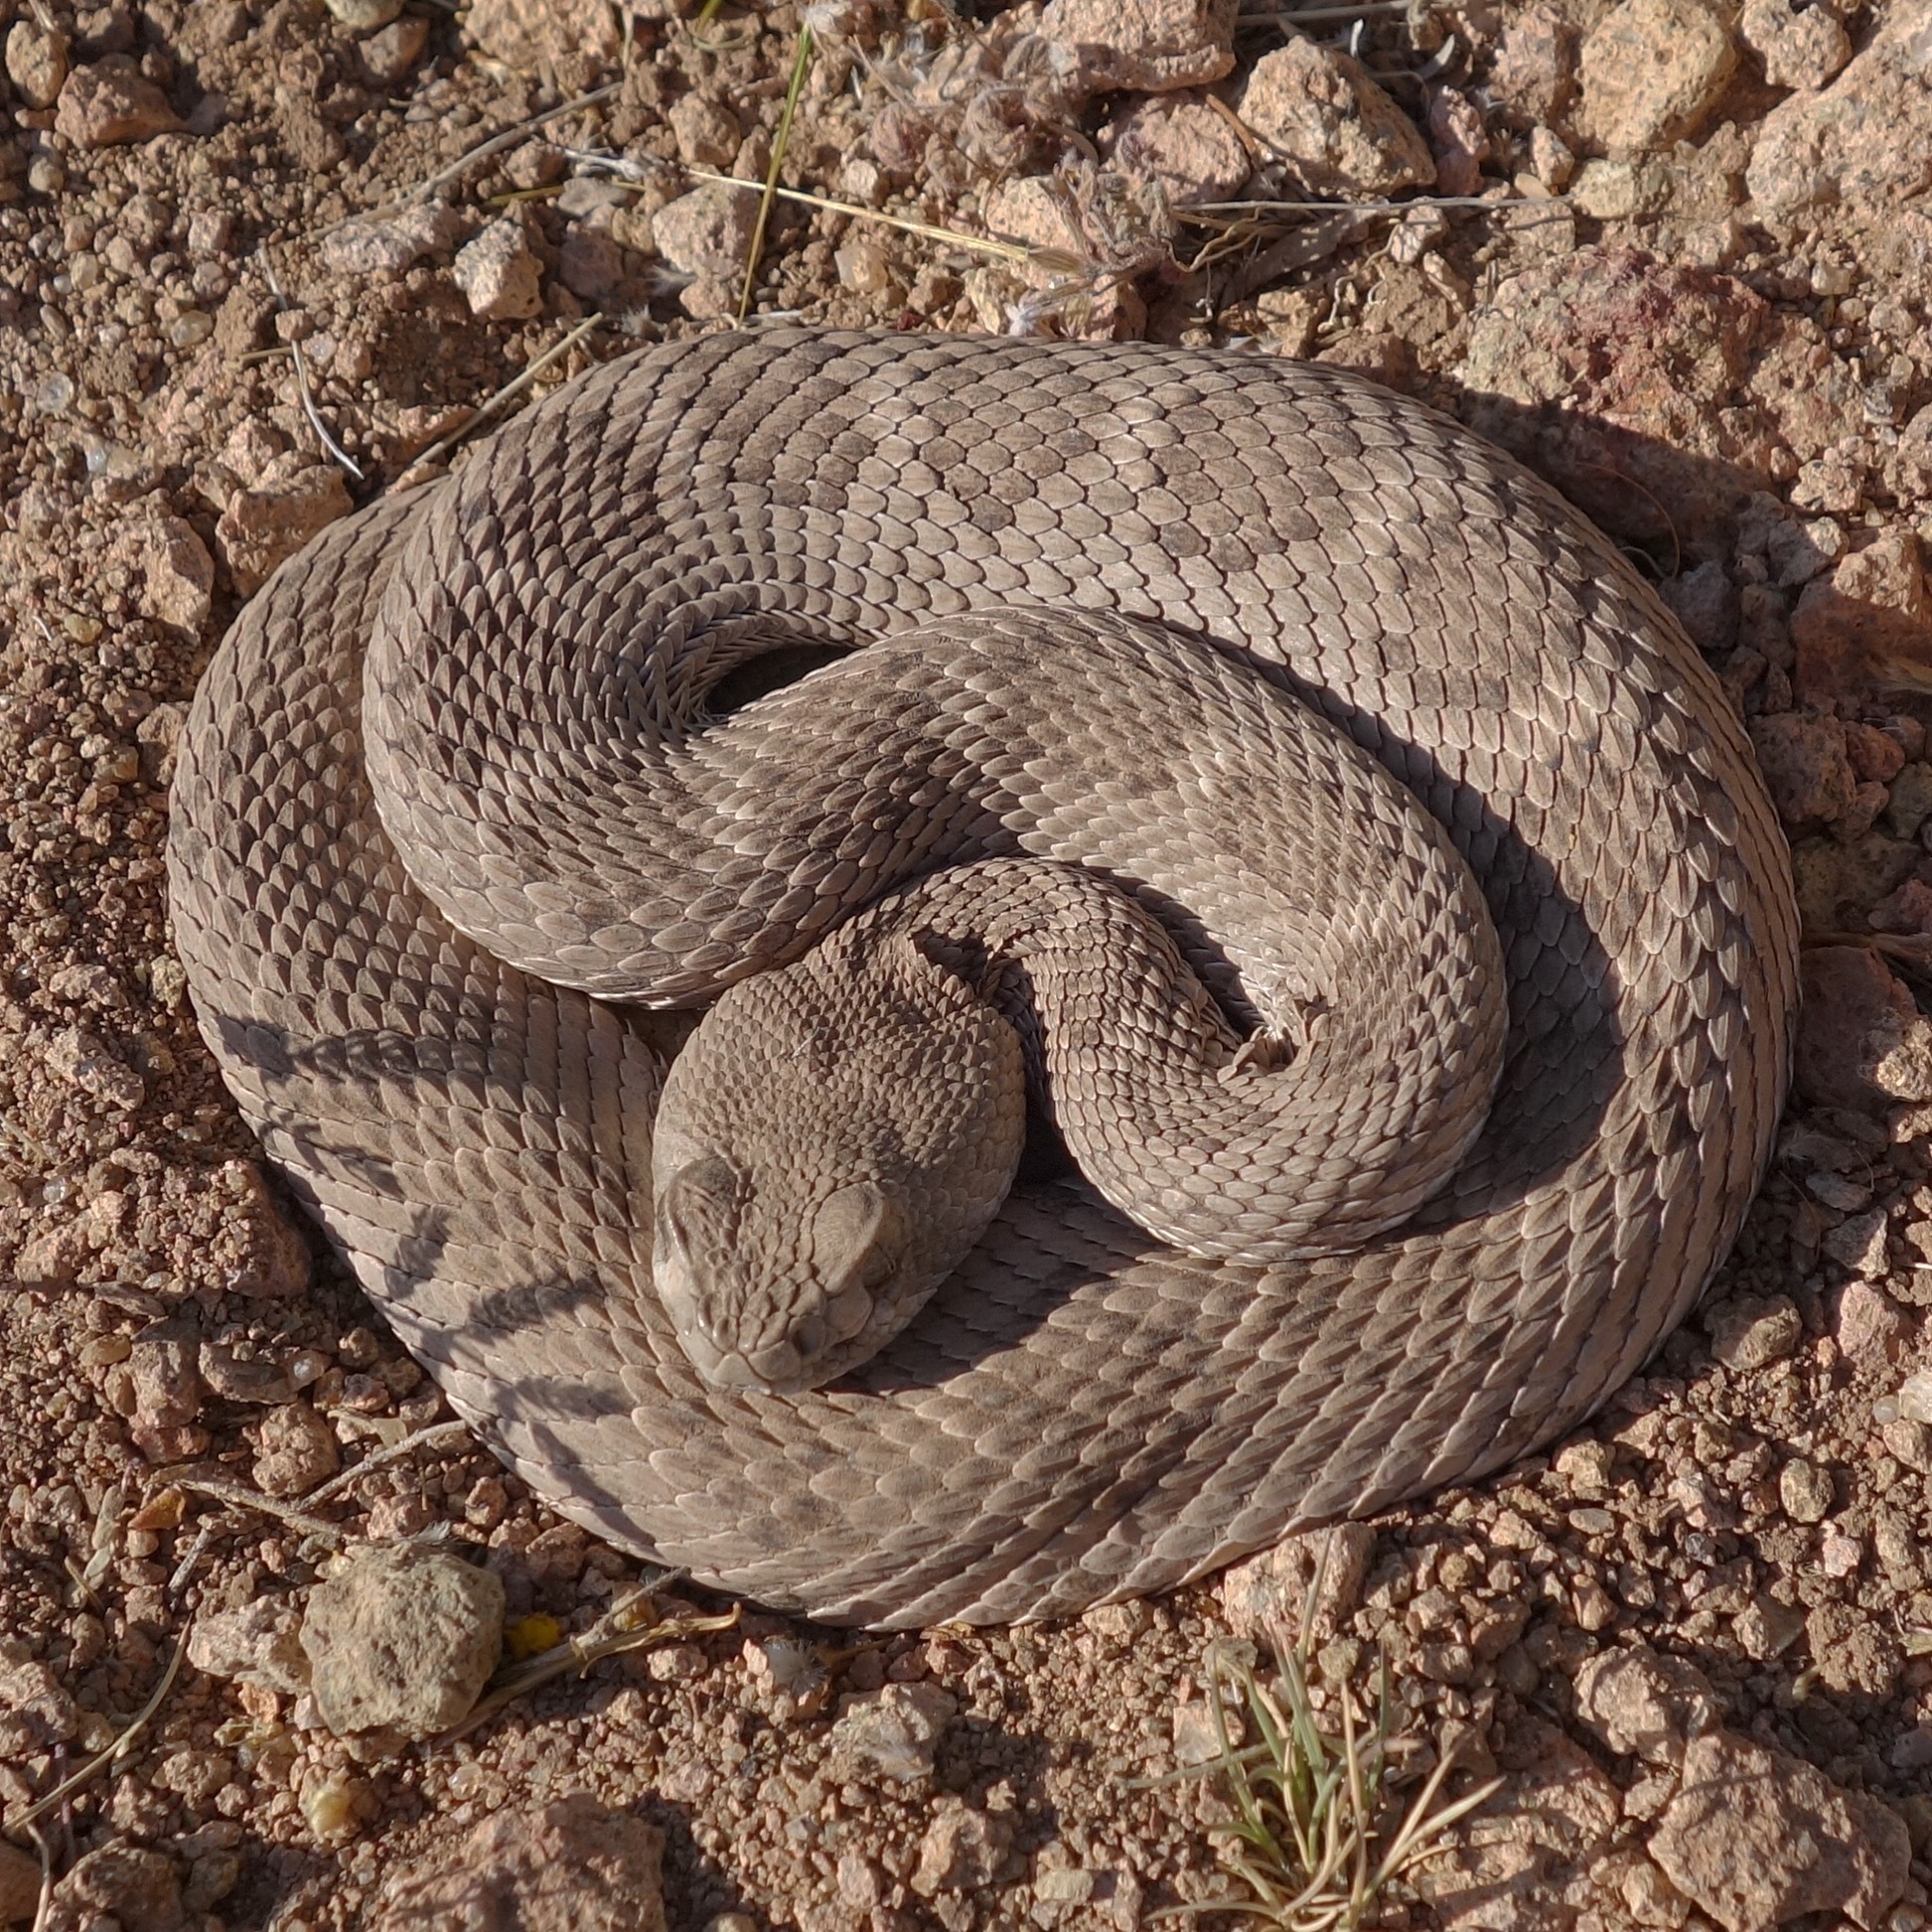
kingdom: Animalia
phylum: Chordata
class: Squamata
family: Viperidae
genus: Crotalus
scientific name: Crotalus atrox
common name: Western diamond-backed rattlesnake
